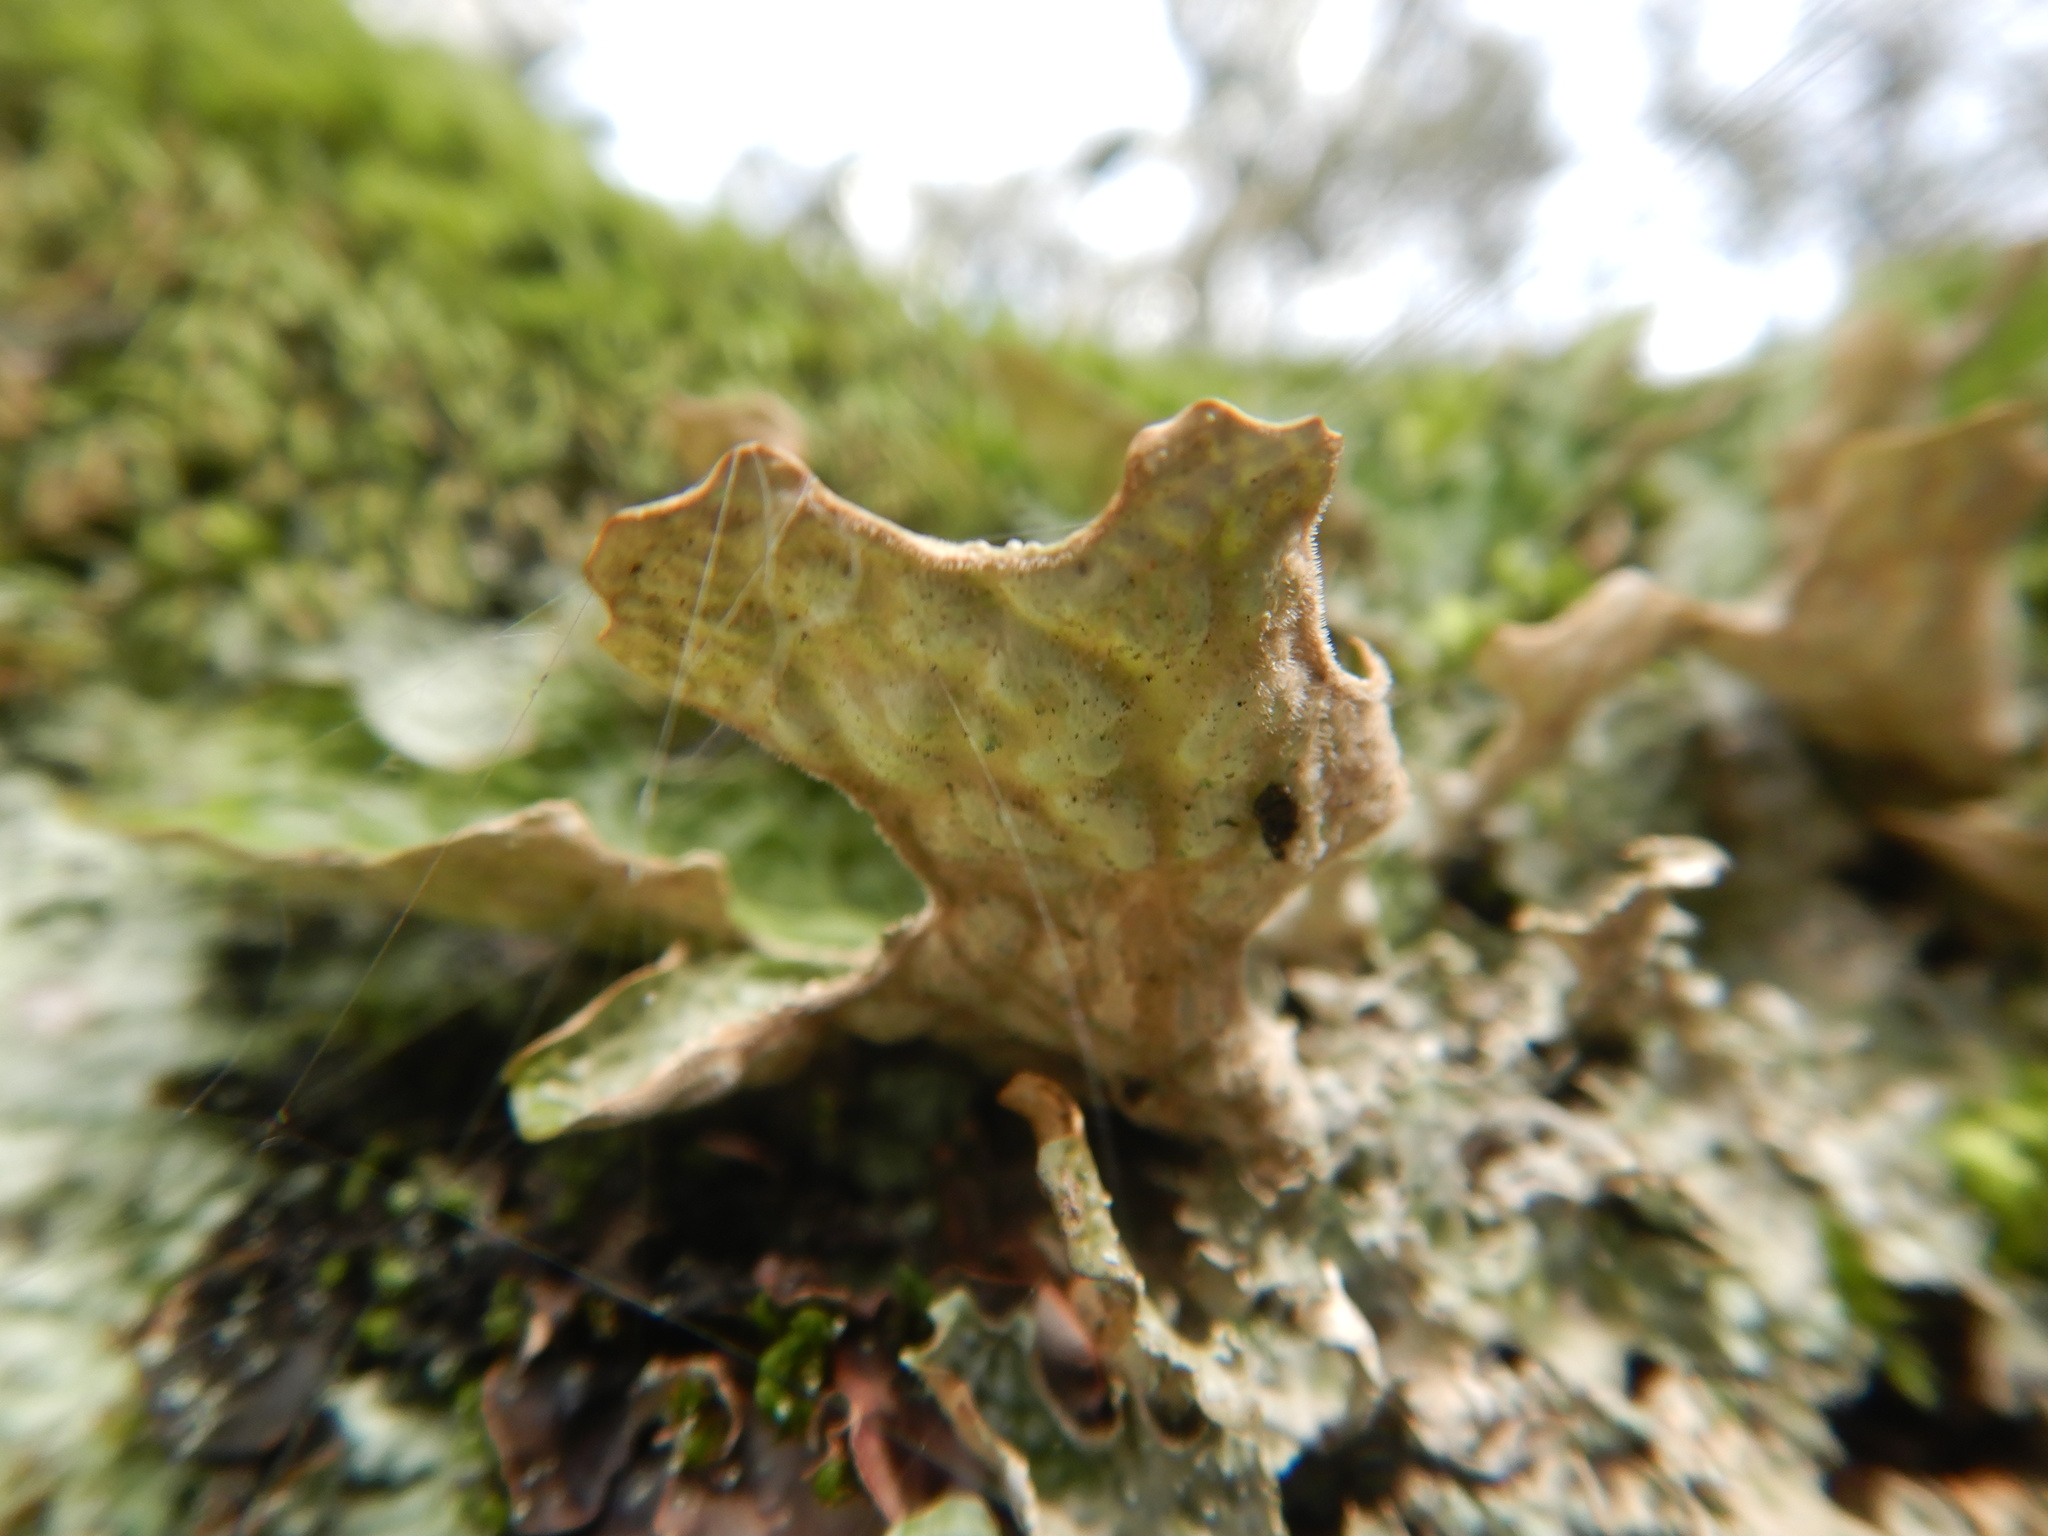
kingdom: Fungi
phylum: Ascomycota
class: Lecanoromycetes
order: Peltigerales
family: Lobariaceae
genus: Lobaria
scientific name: Lobaria pulmonaria
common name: Lungwort
